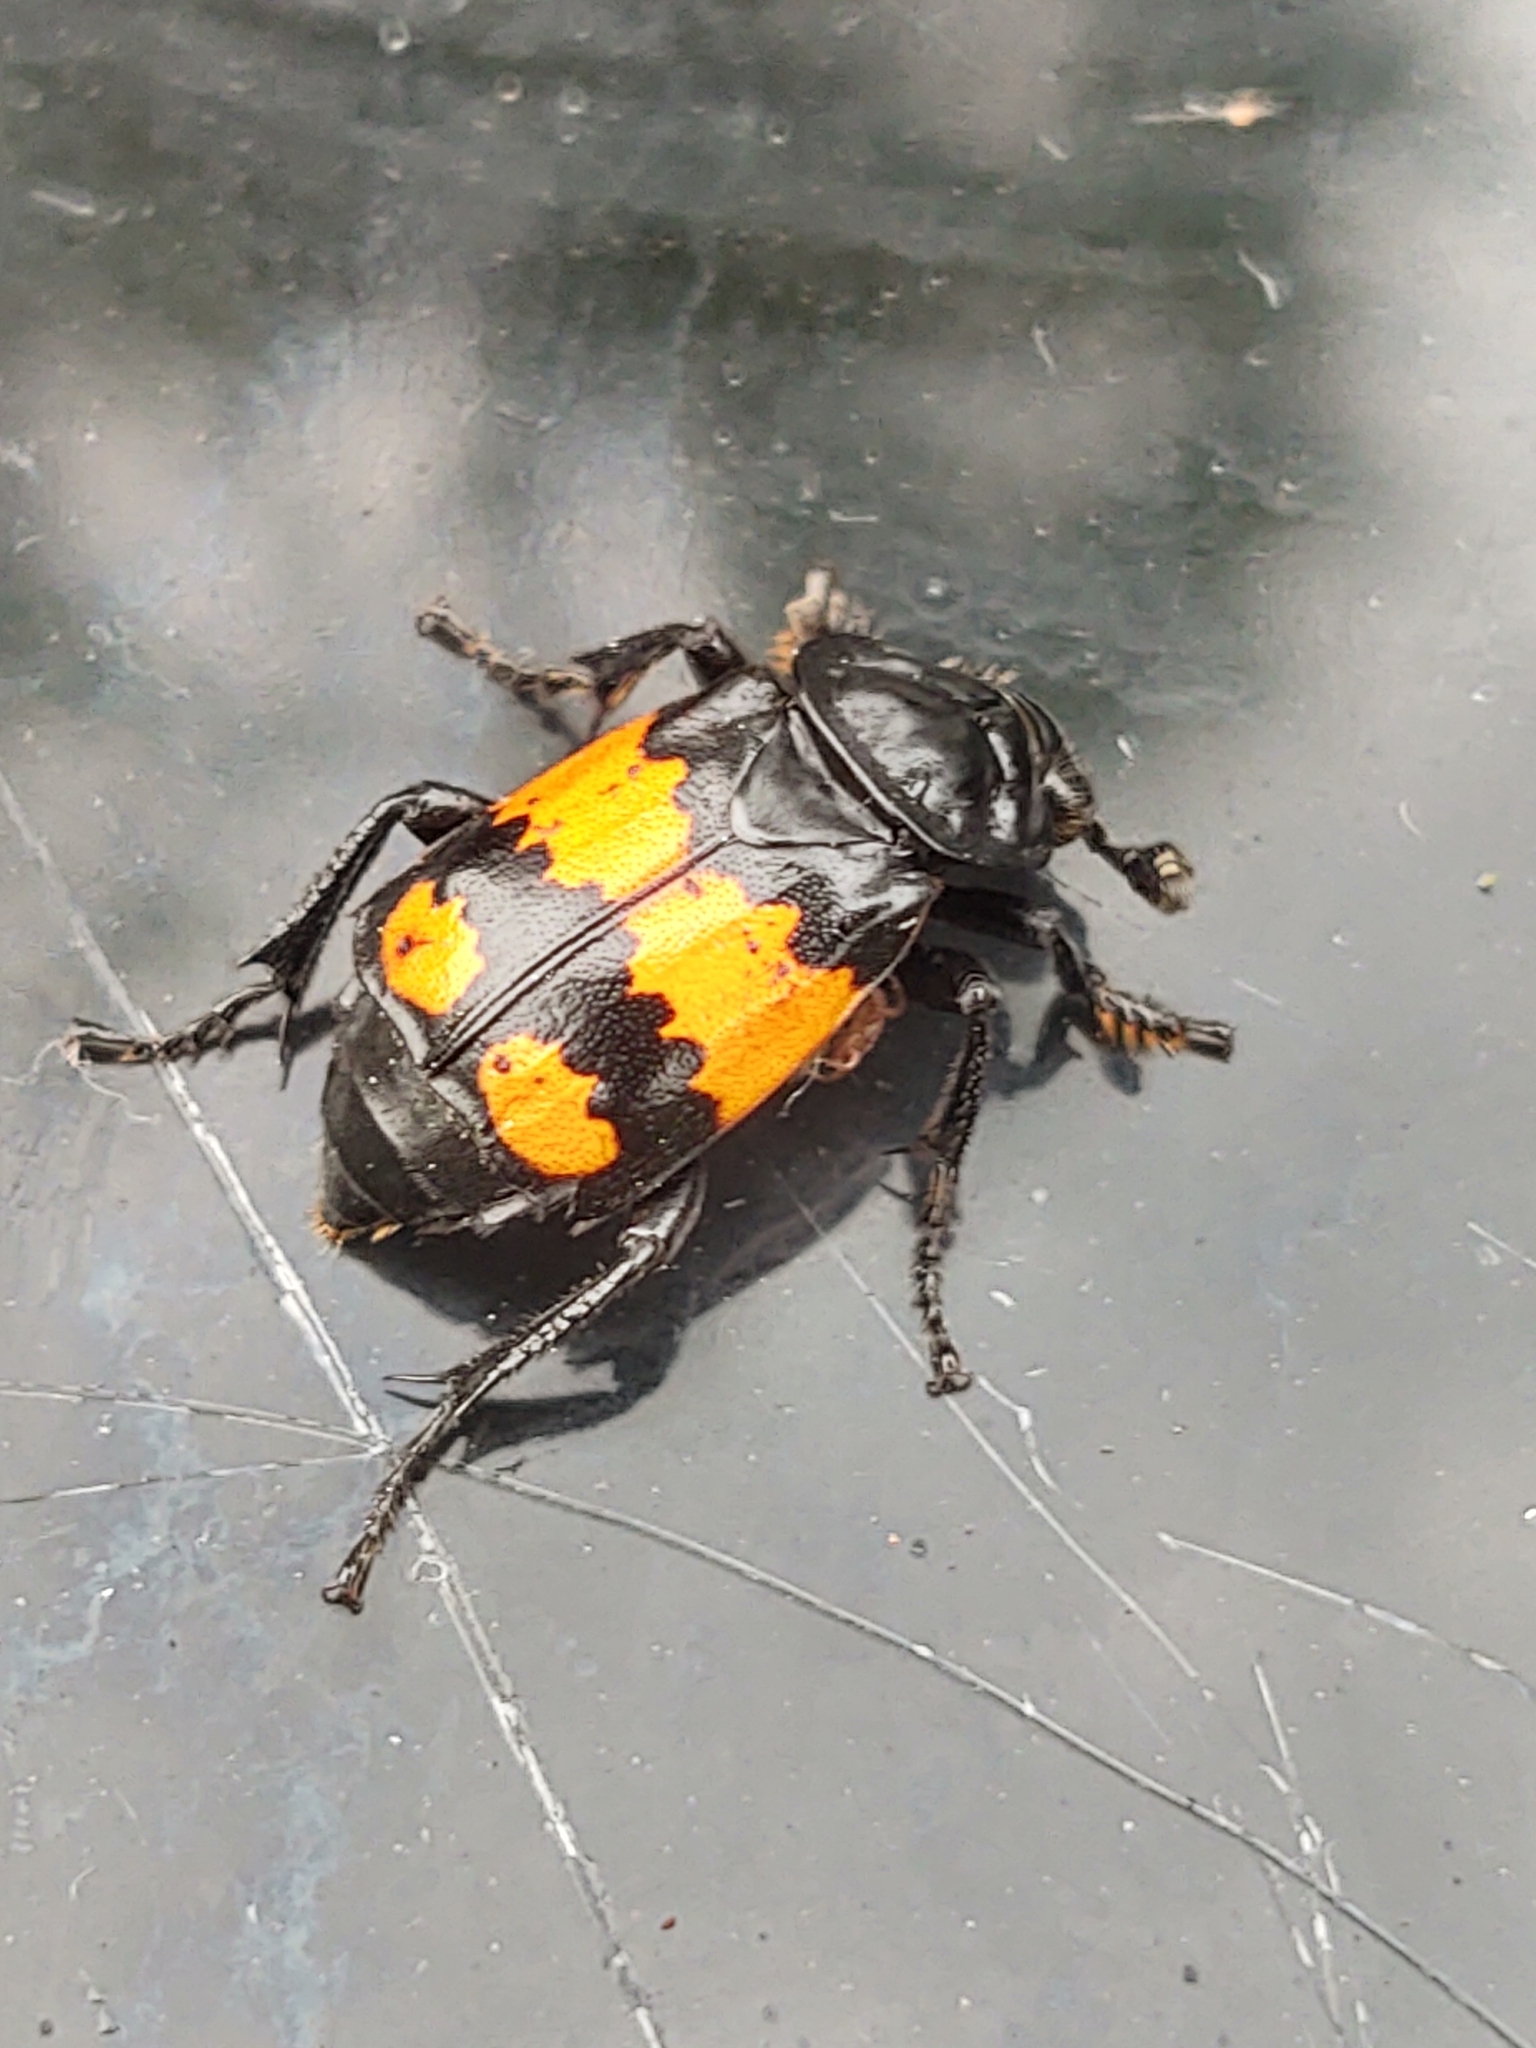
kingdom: Animalia
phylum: Arthropoda
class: Insecta
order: Coleoptera
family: Staphylinidae
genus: Nicrophorus
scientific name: Nicrophorus vespilloides
